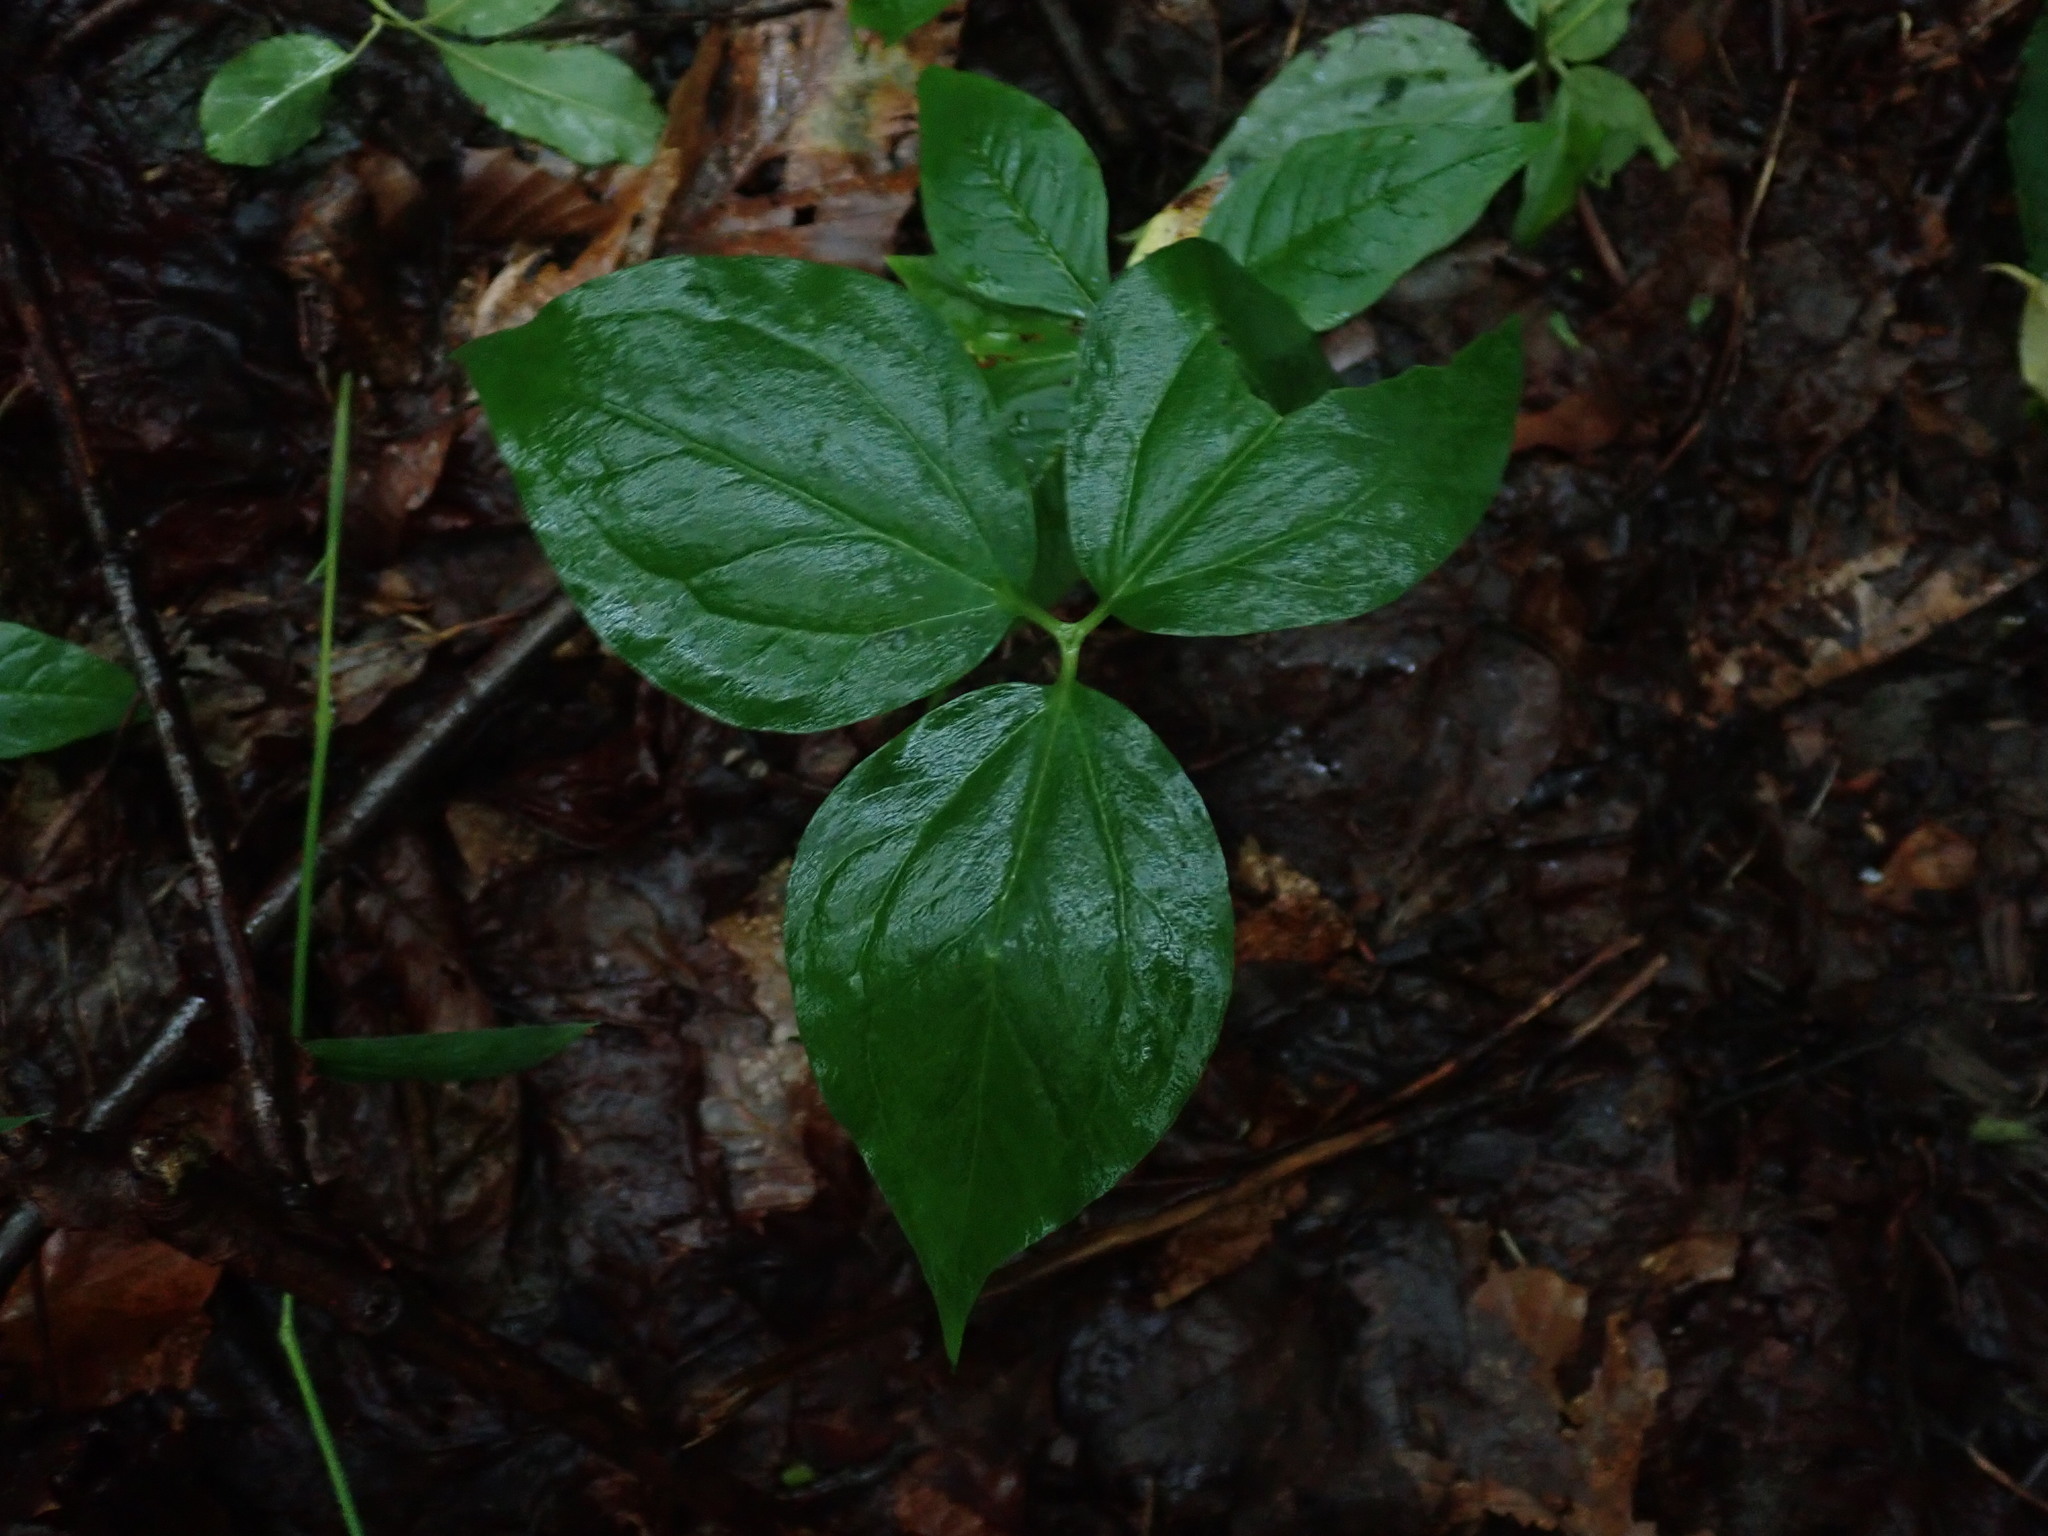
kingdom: Plantae
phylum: Tracheophyta
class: Liliopsida
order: Liliales
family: Melanthiaceae
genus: Trillium
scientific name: Trillium undulatum
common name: Paint trillium
